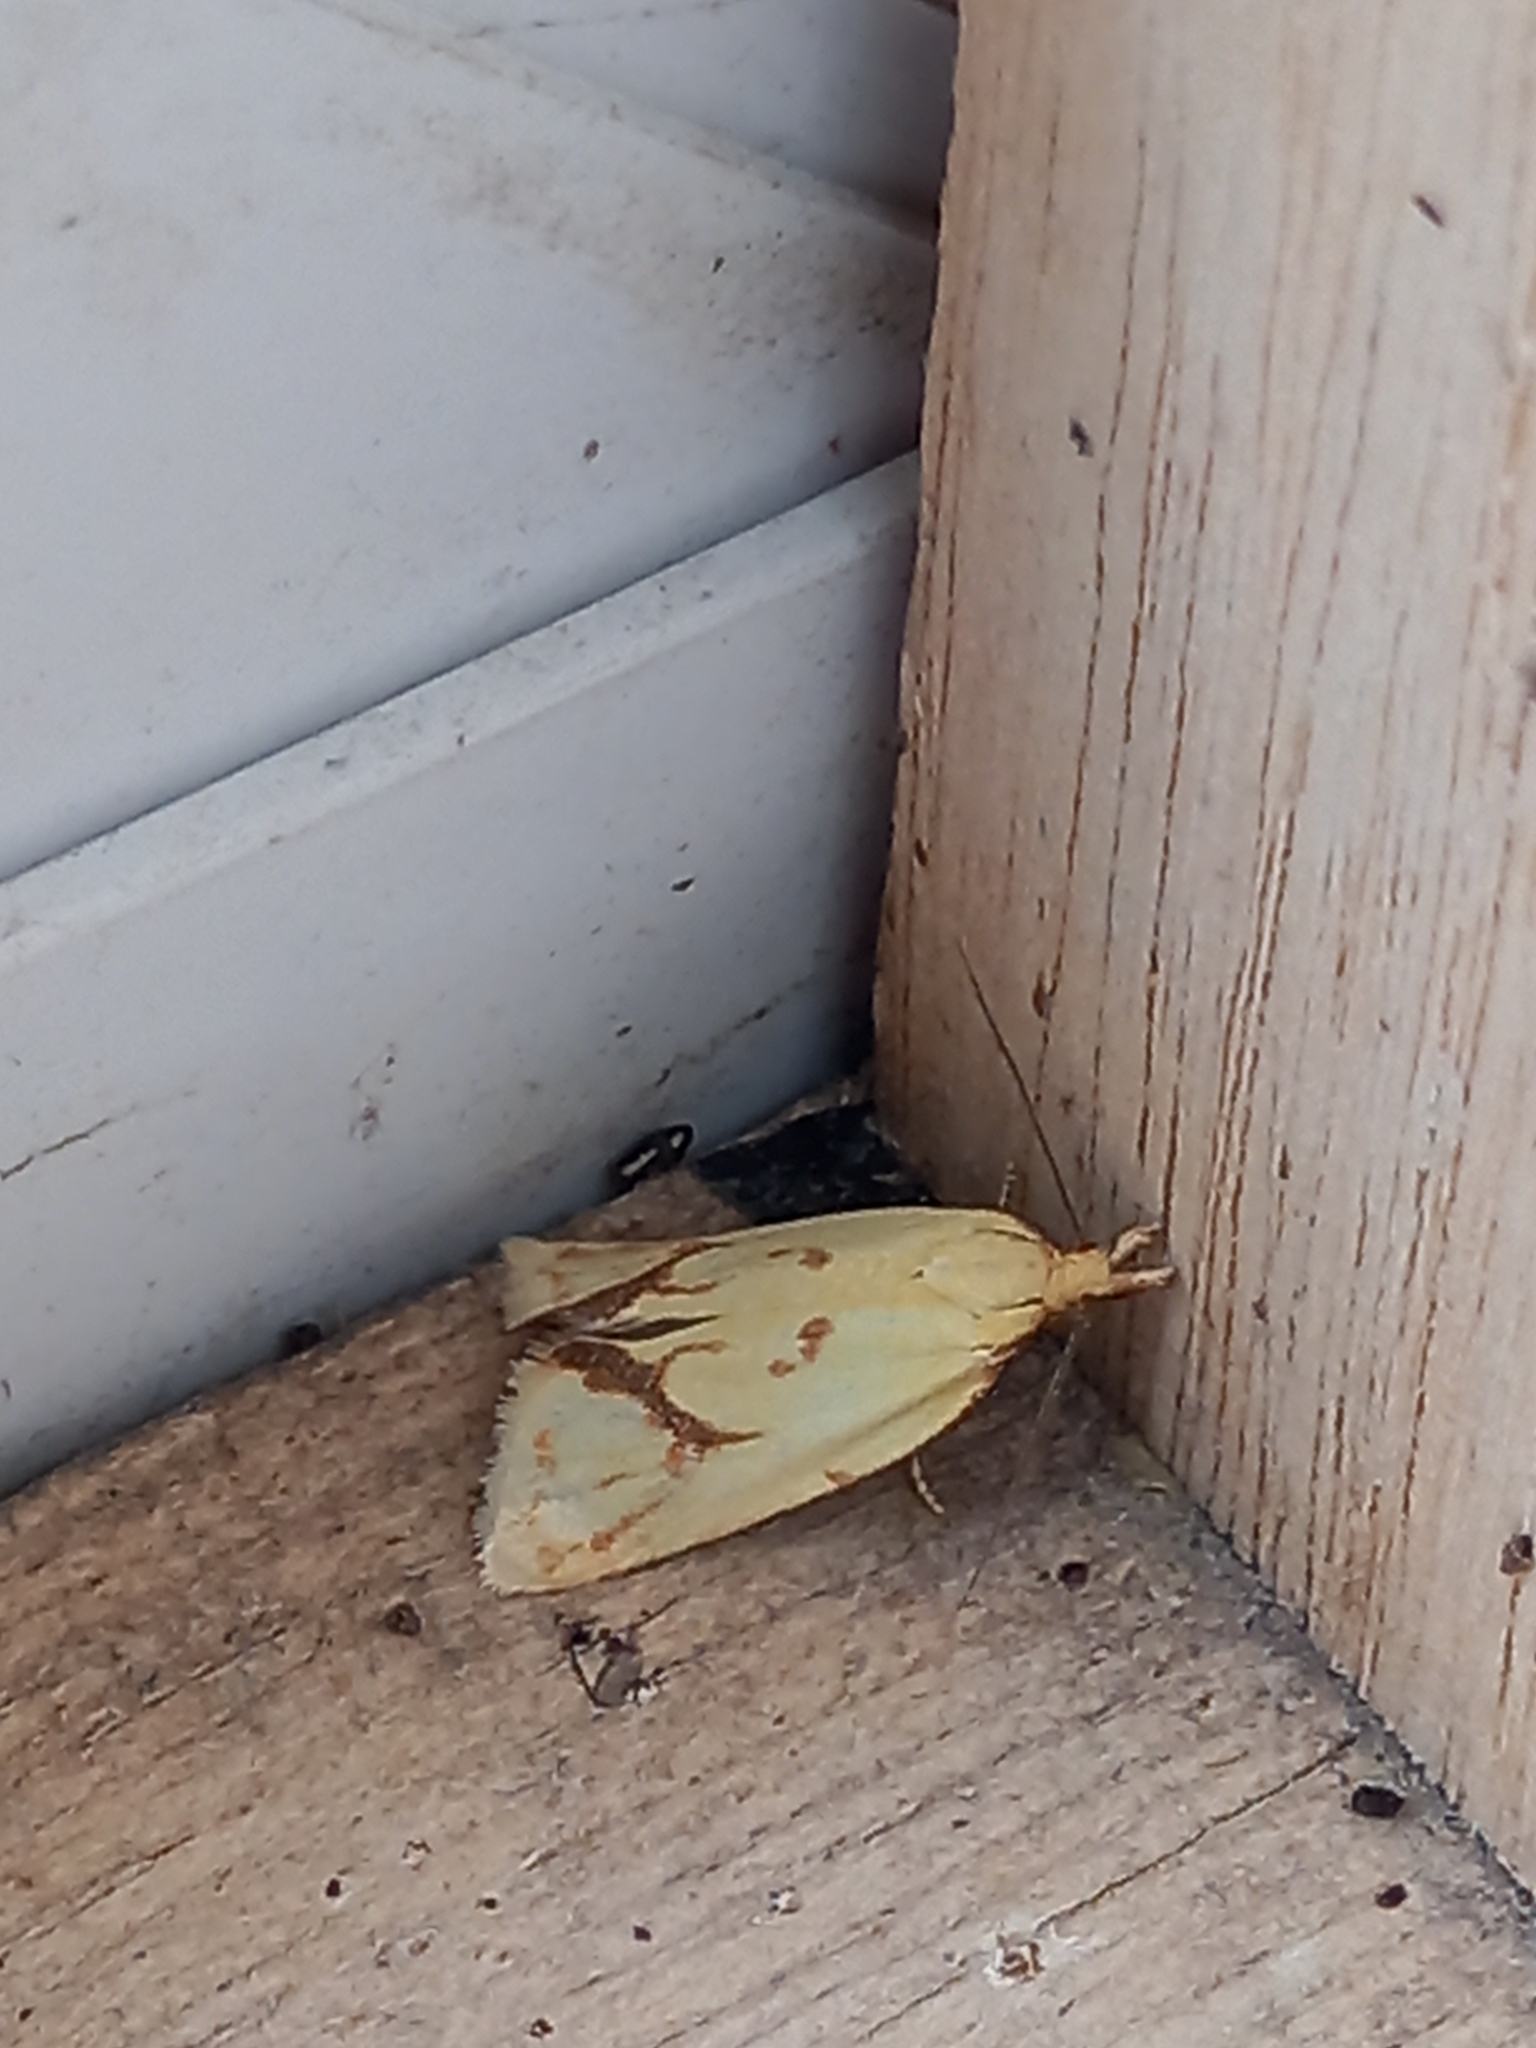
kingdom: Animalia
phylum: Arthropoda
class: Insecta
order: Lepidoptera
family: Tortricidae
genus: Agapeta
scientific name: Agapeta hamana
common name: Common yellow conch
